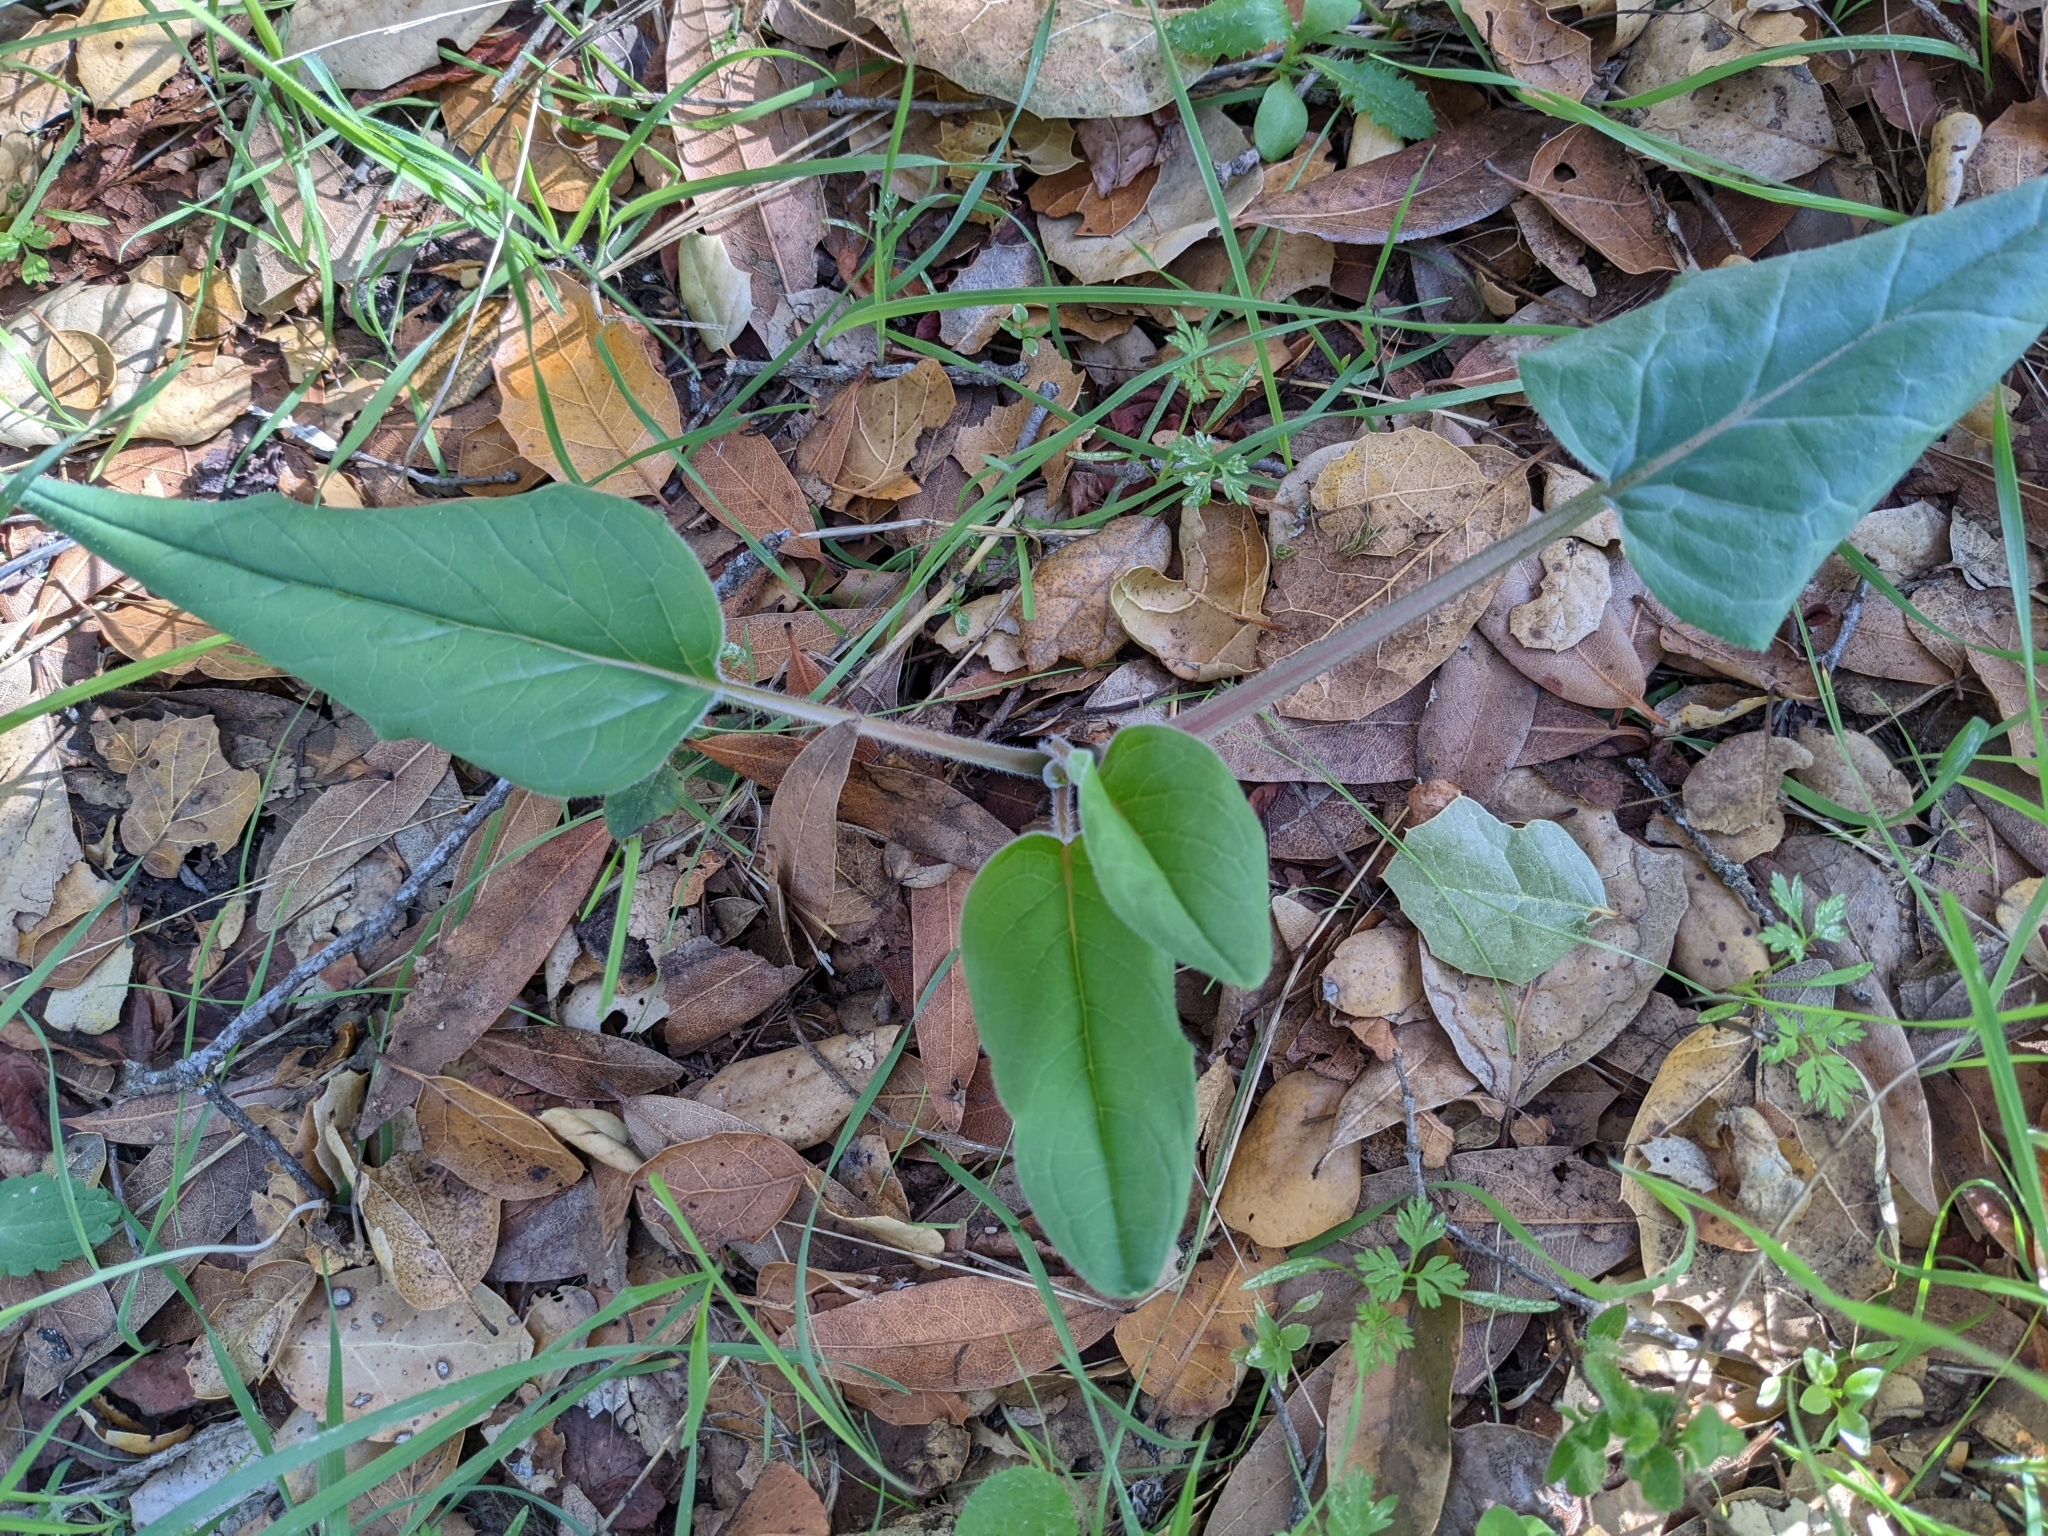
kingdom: Plantae
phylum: Tracheophyta
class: Magnoliopsida
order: Boraginales
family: Boraginaceae
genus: Adelinia
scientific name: Adelinia grande
